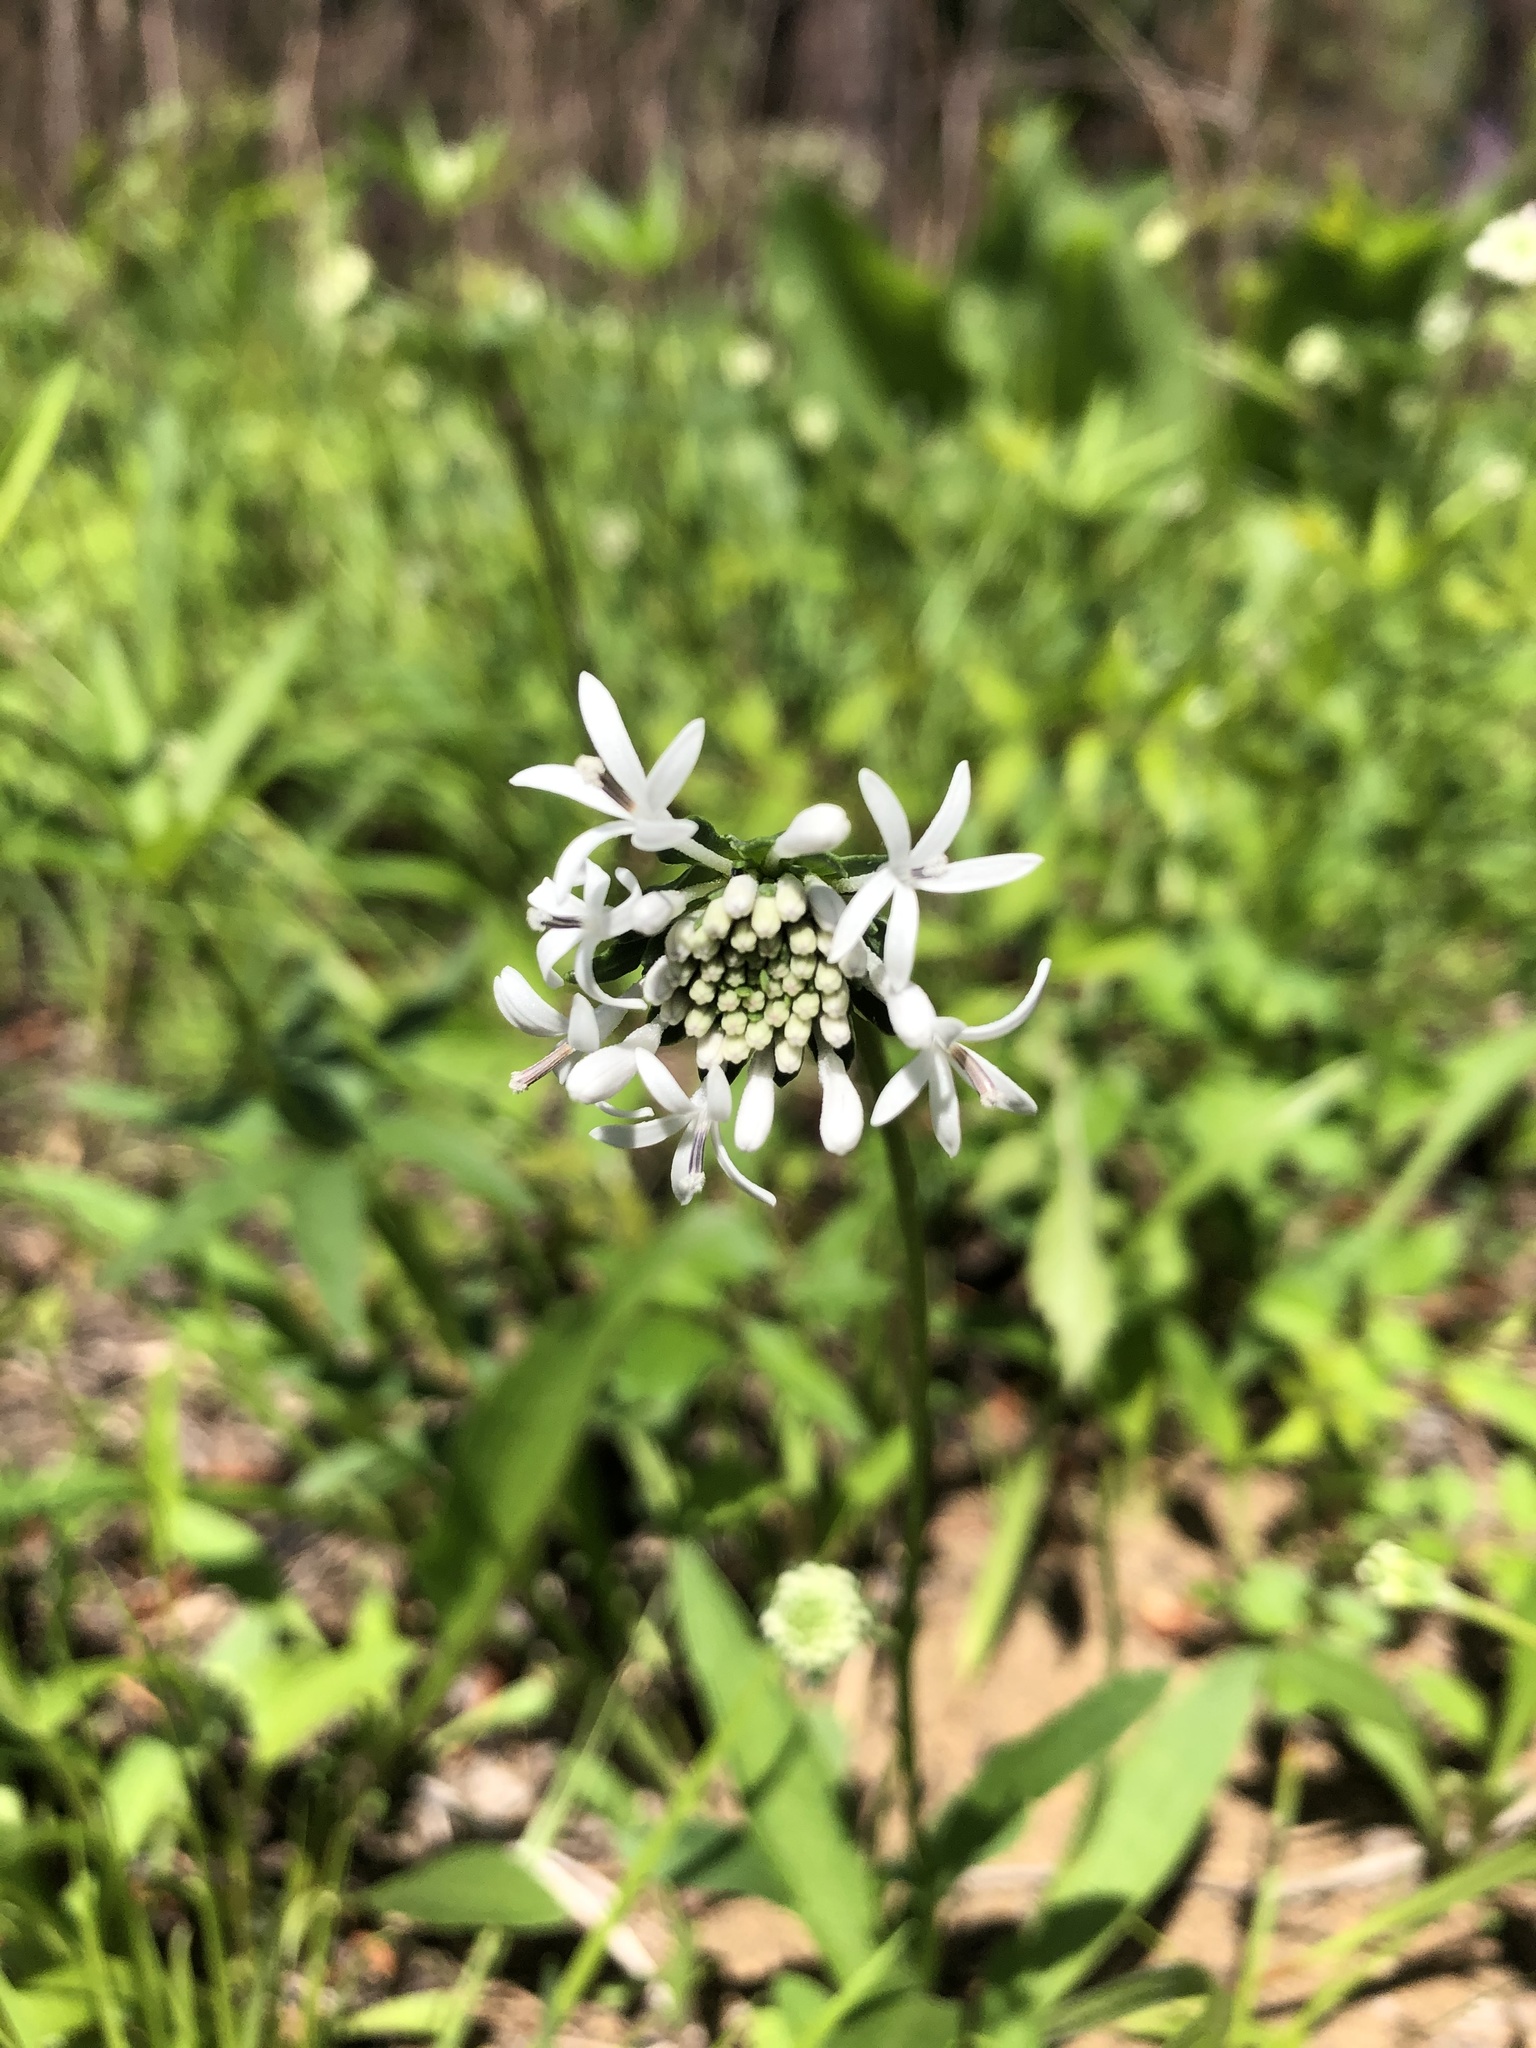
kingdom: Plantae
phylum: Tracheophyta
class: Magnoliopsida
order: Asterales
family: Asteraceae
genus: Marshallia
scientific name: Marshallia obovata
